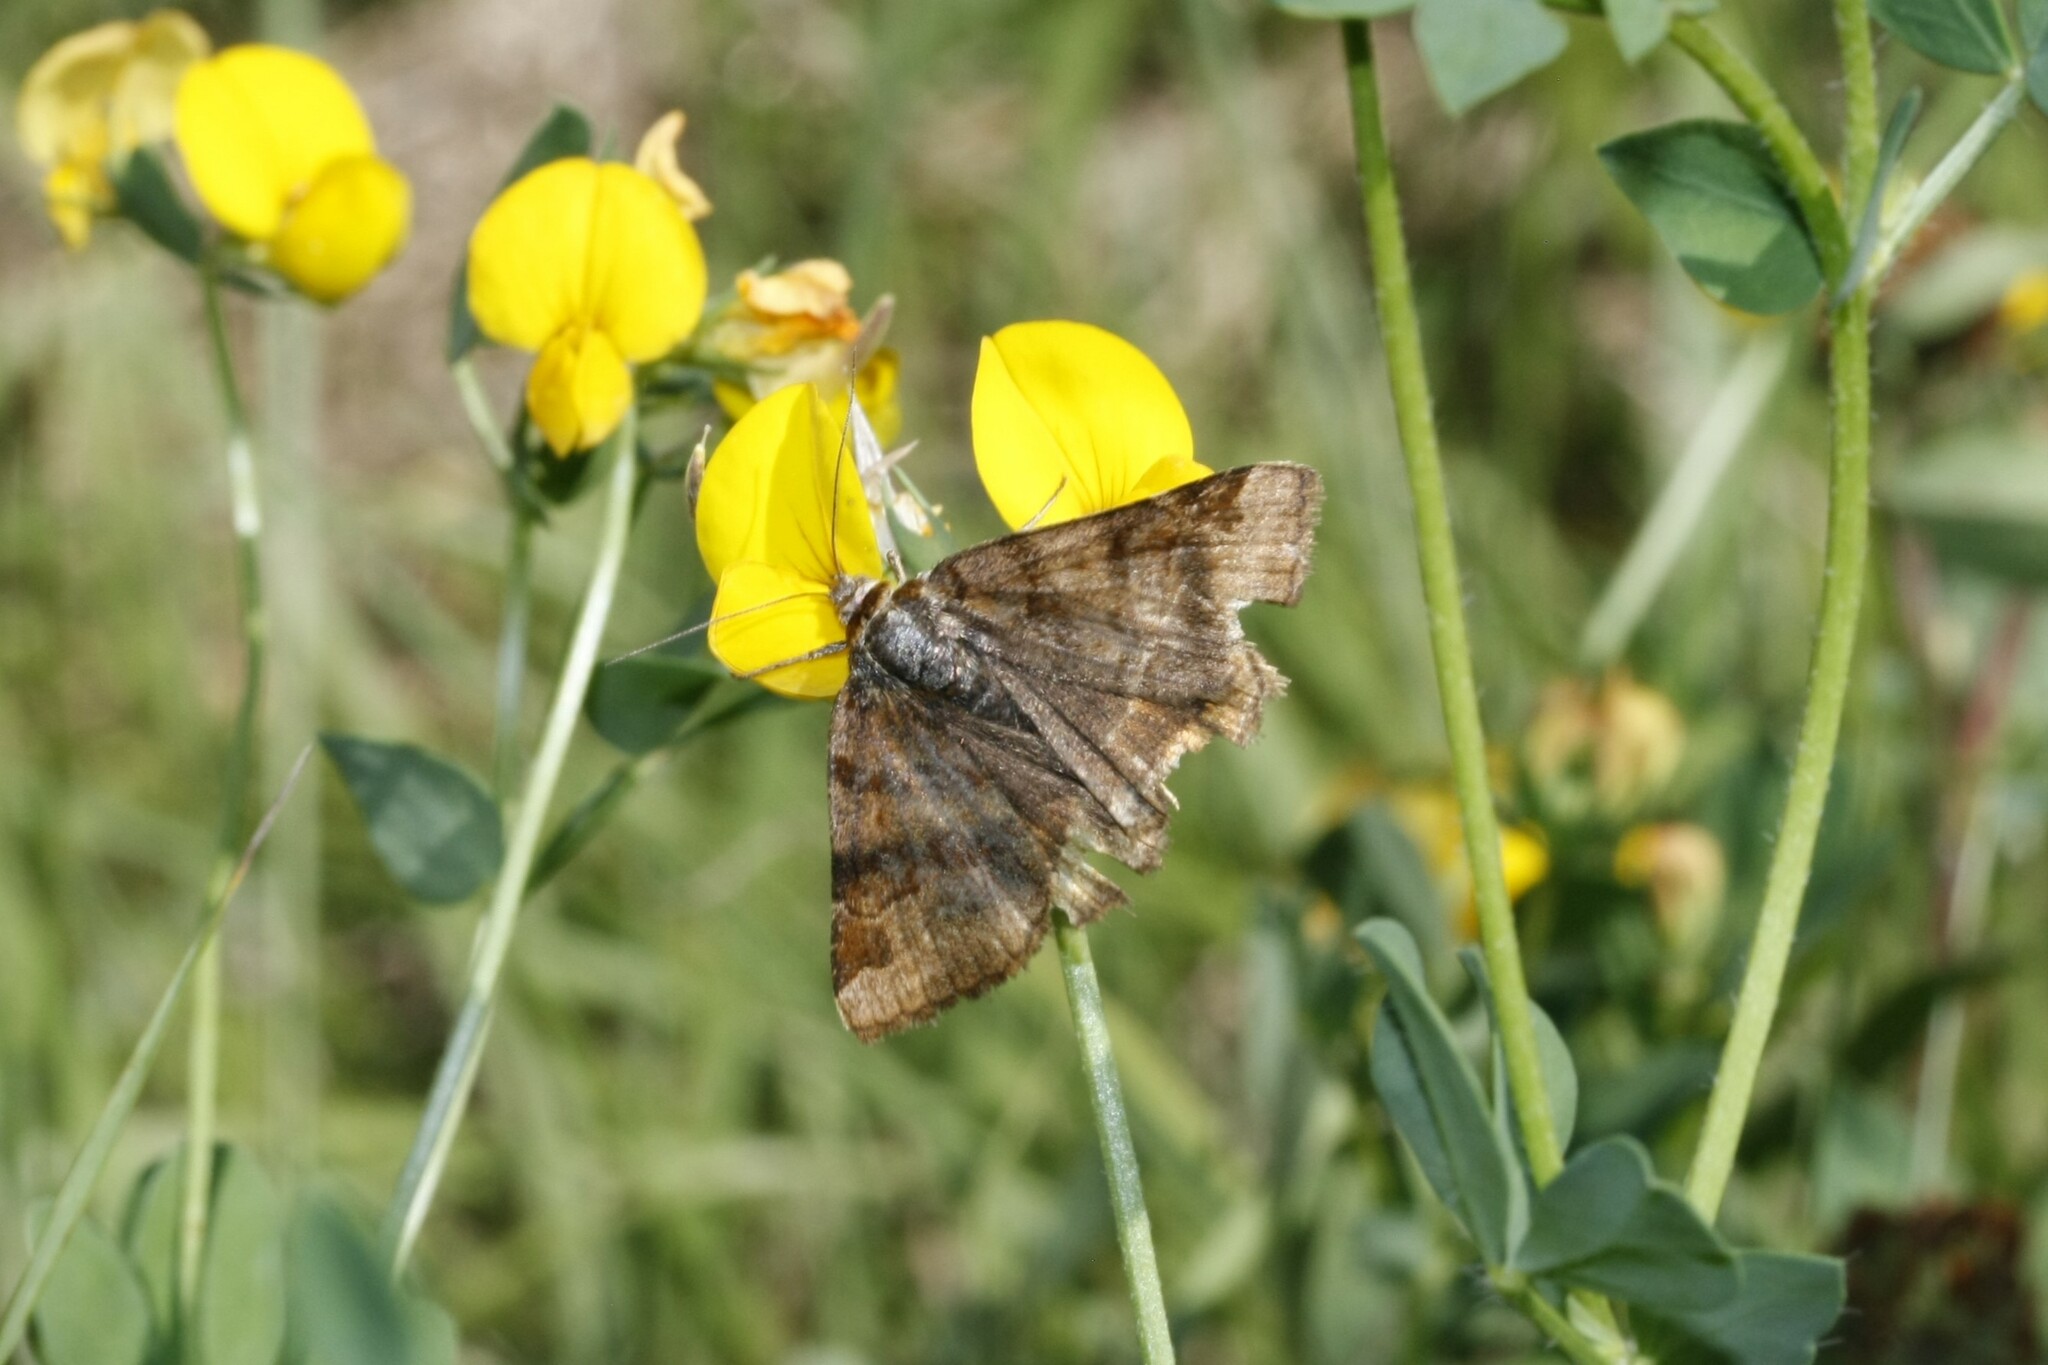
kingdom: Animalia
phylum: Arthropoda
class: Insecta
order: Lepidoptera
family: Erebidae
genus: Euclidia
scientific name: Euclidia glyphica
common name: Burnet companion
